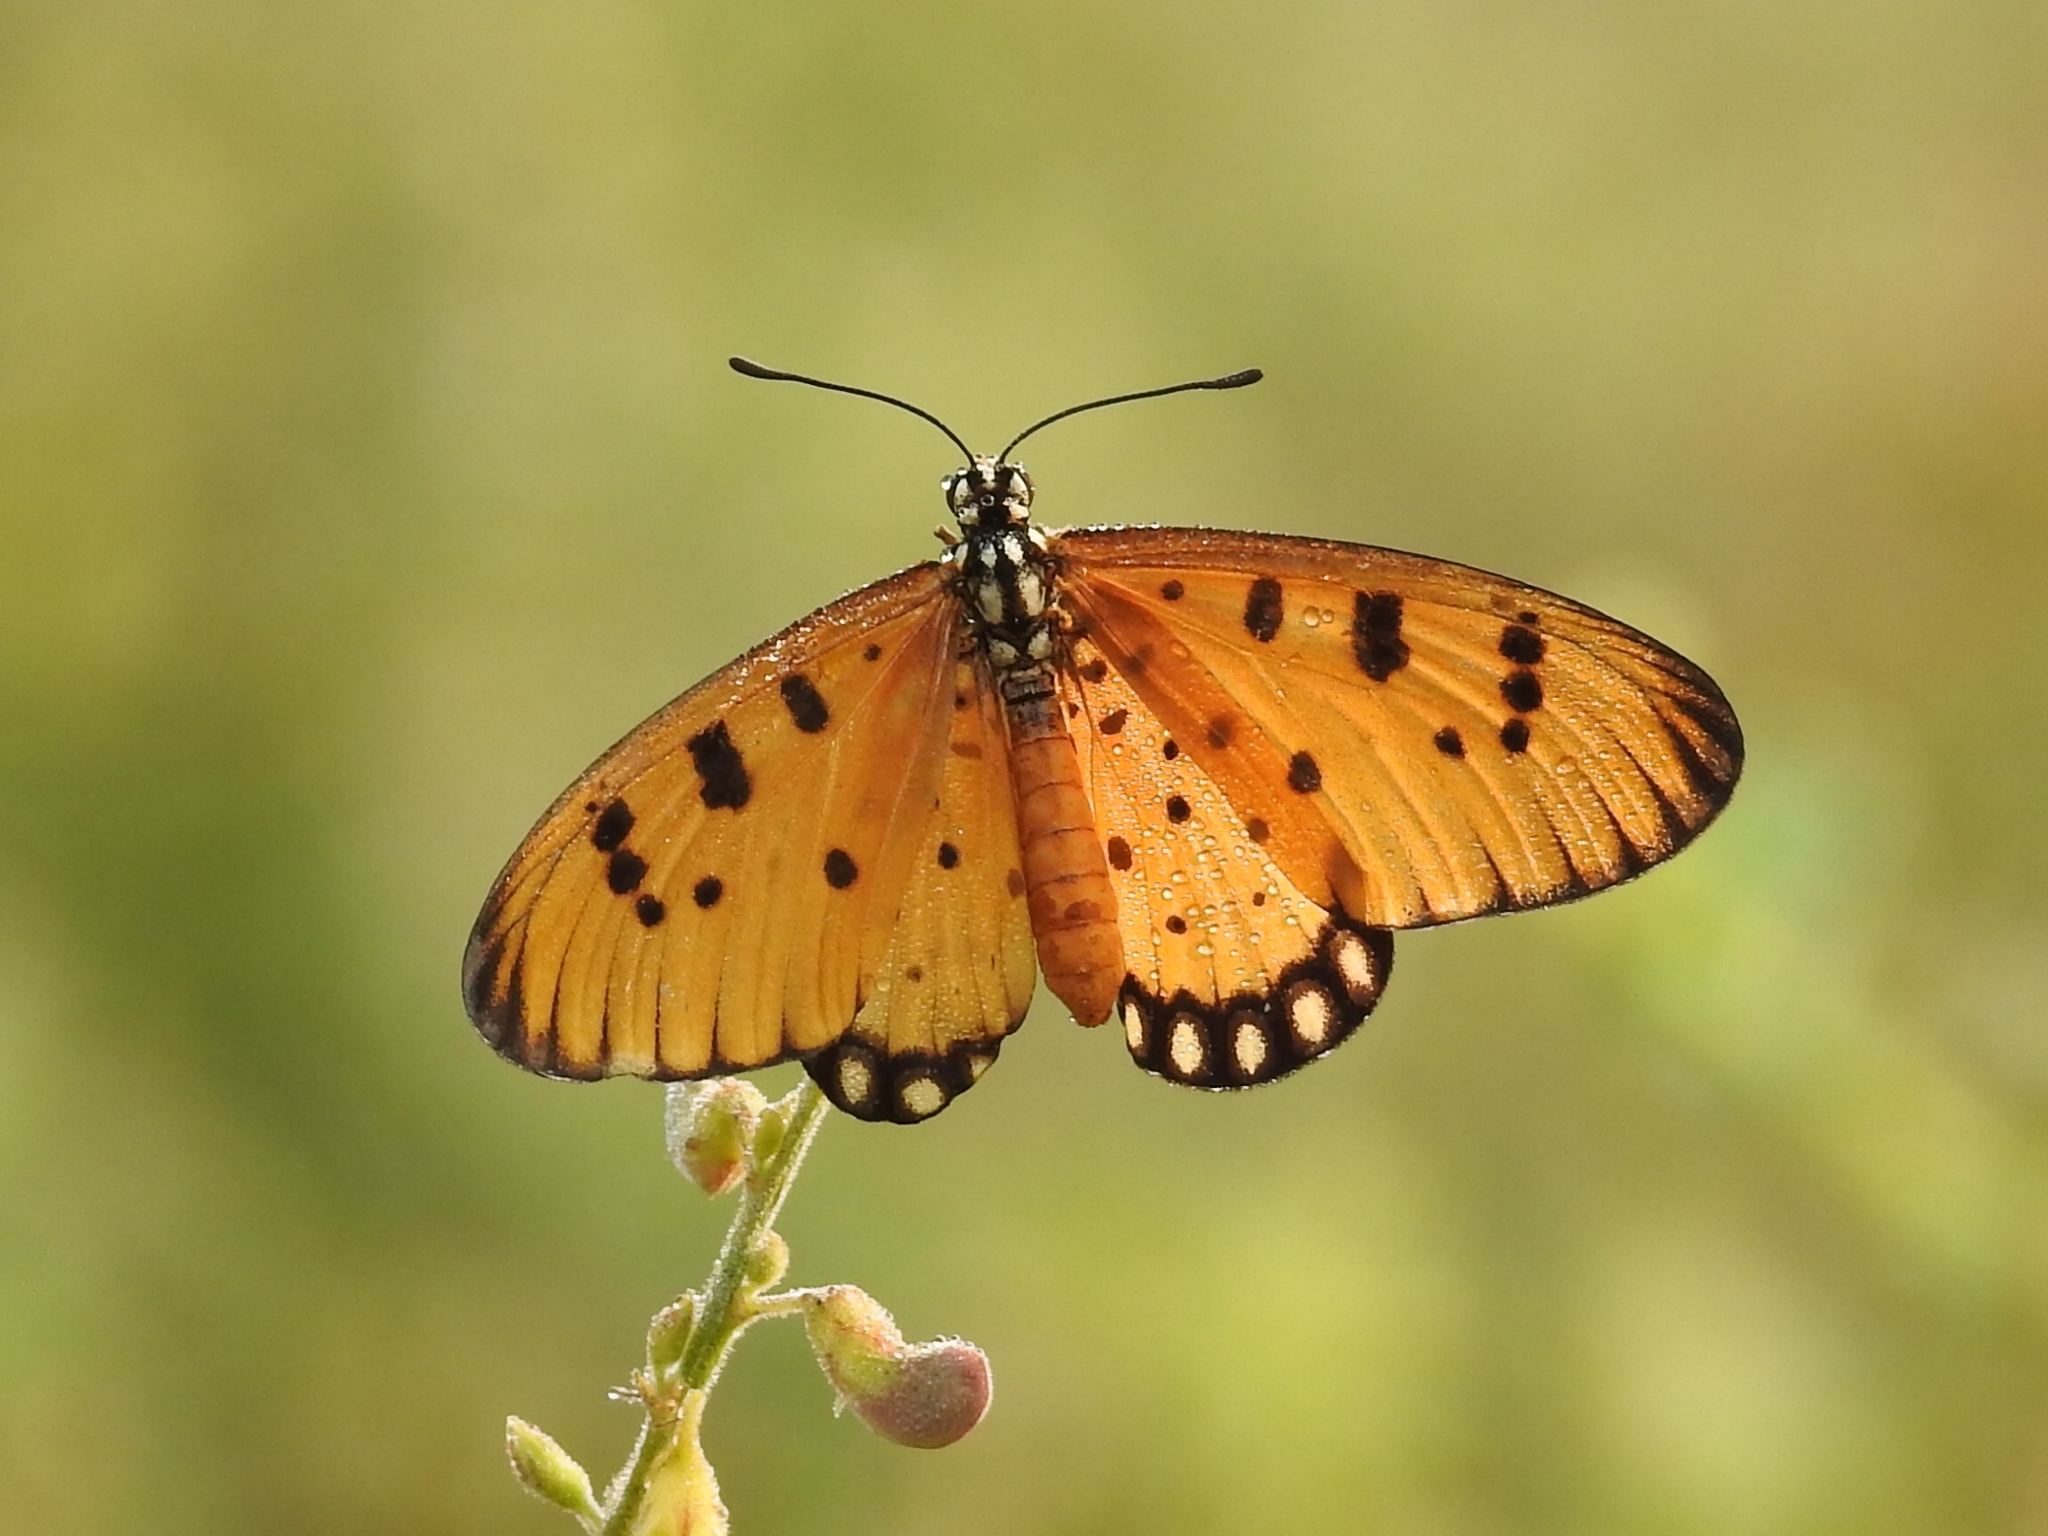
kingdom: Animalia
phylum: Arthropoda
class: Insecta
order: Lepidoptera
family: Nymphalidae
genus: Acraea
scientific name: Acraea terpsicore
